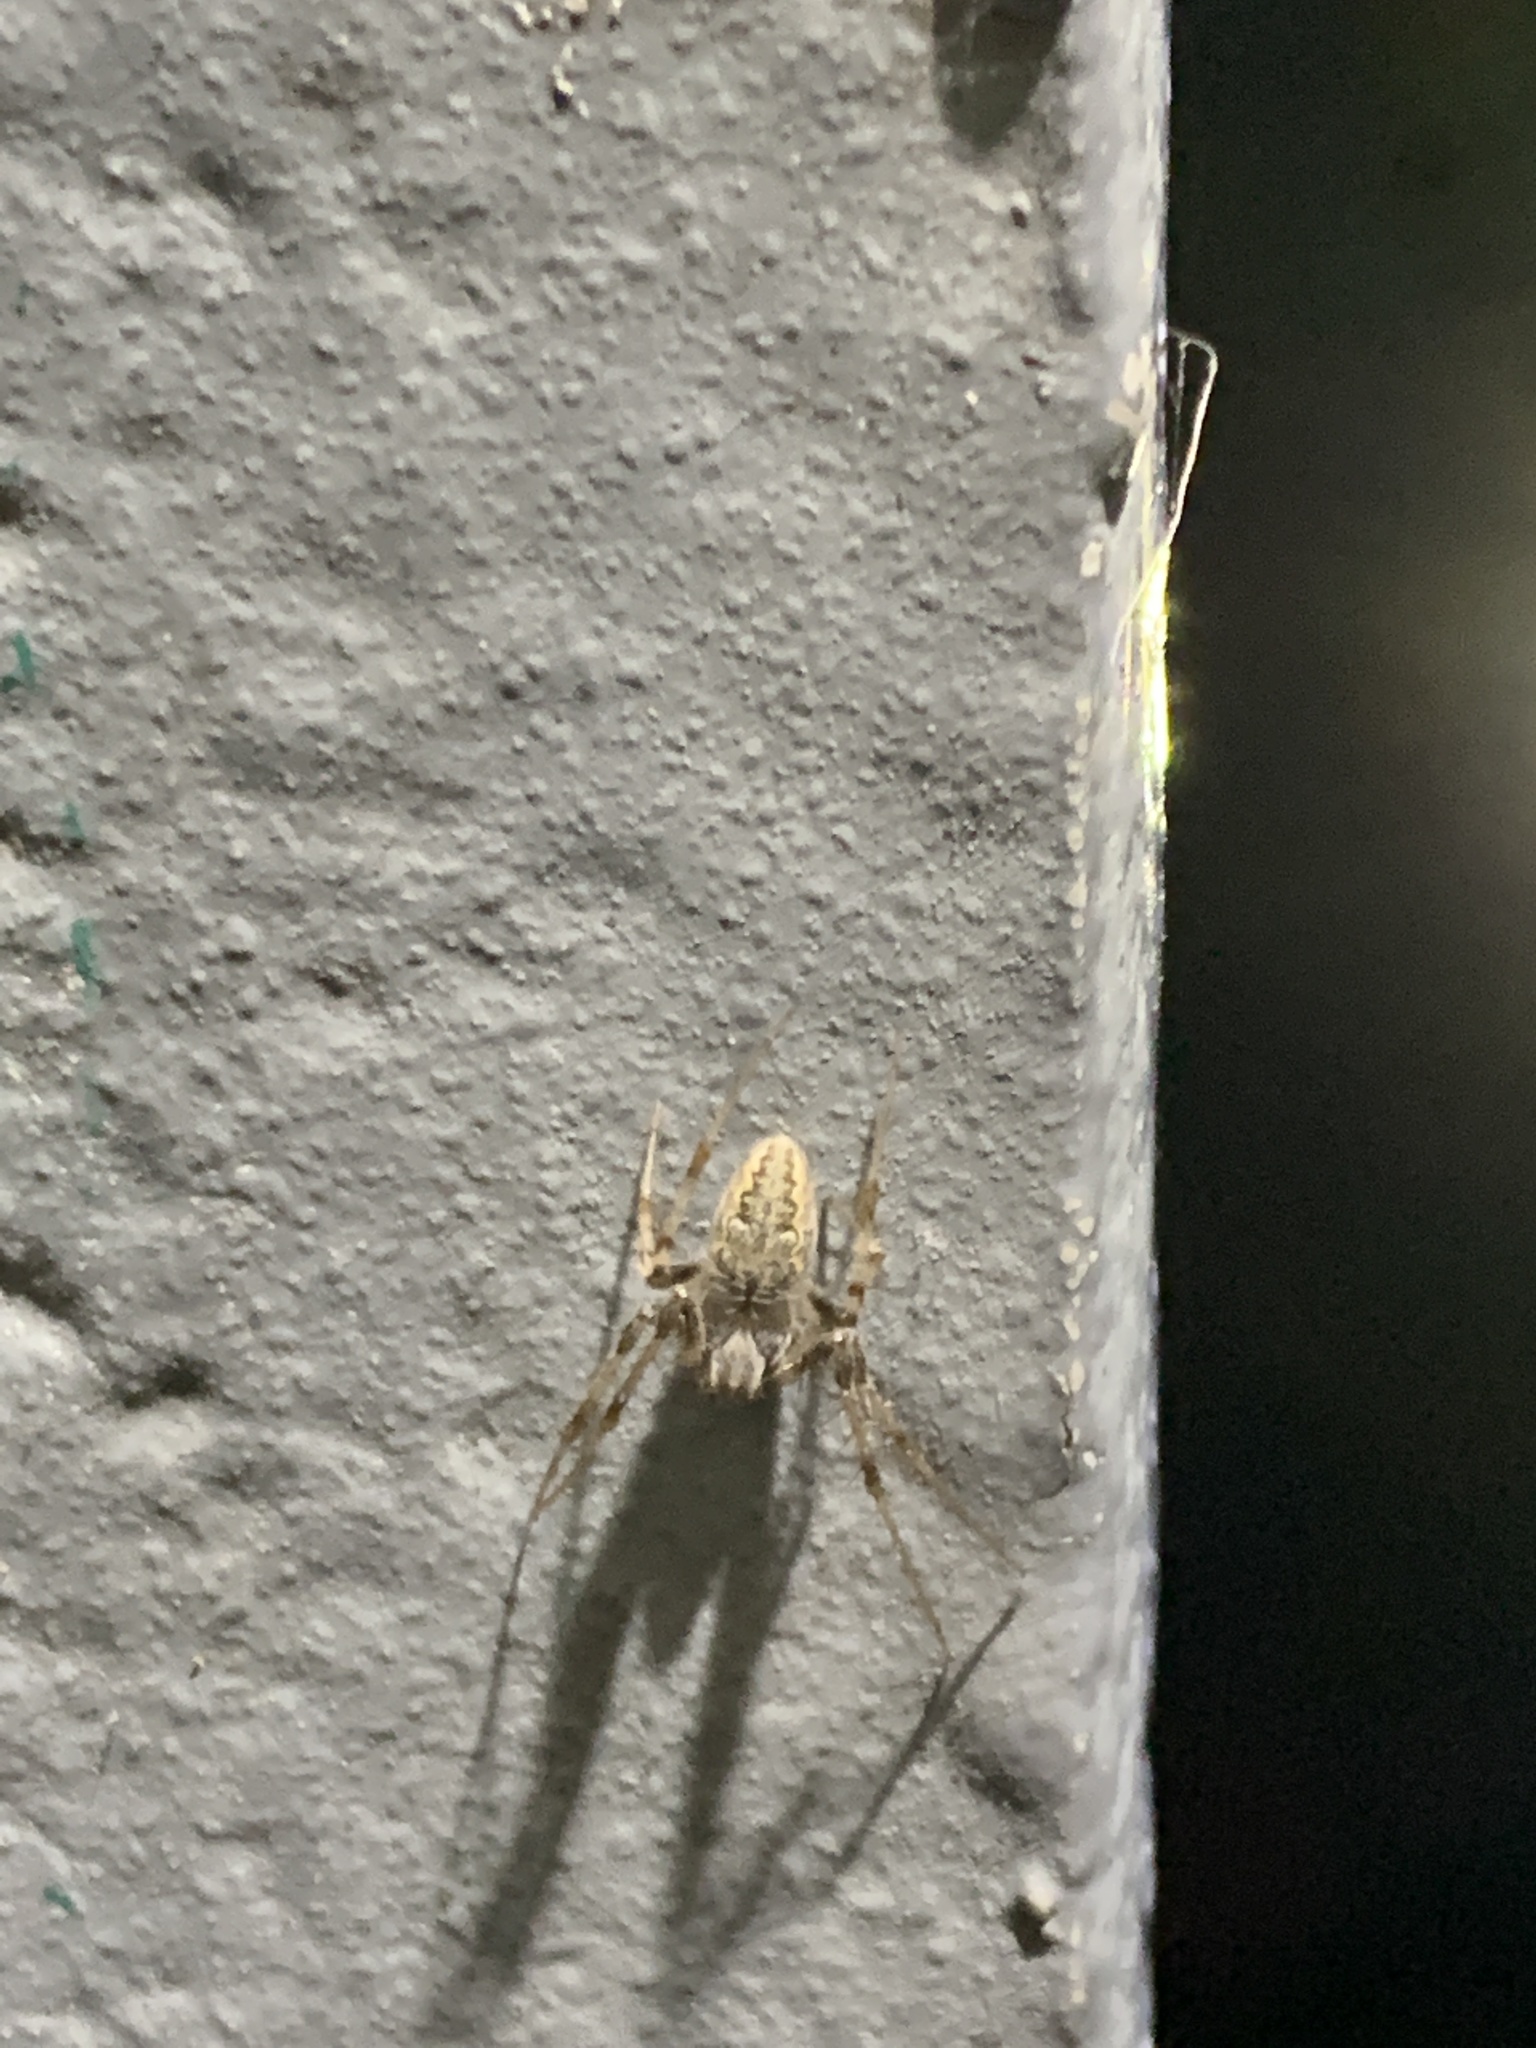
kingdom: Animalia
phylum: Arthropoda
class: Arachnida
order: Araneae
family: Araneidae
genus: Metepeira
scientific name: Metepeira
